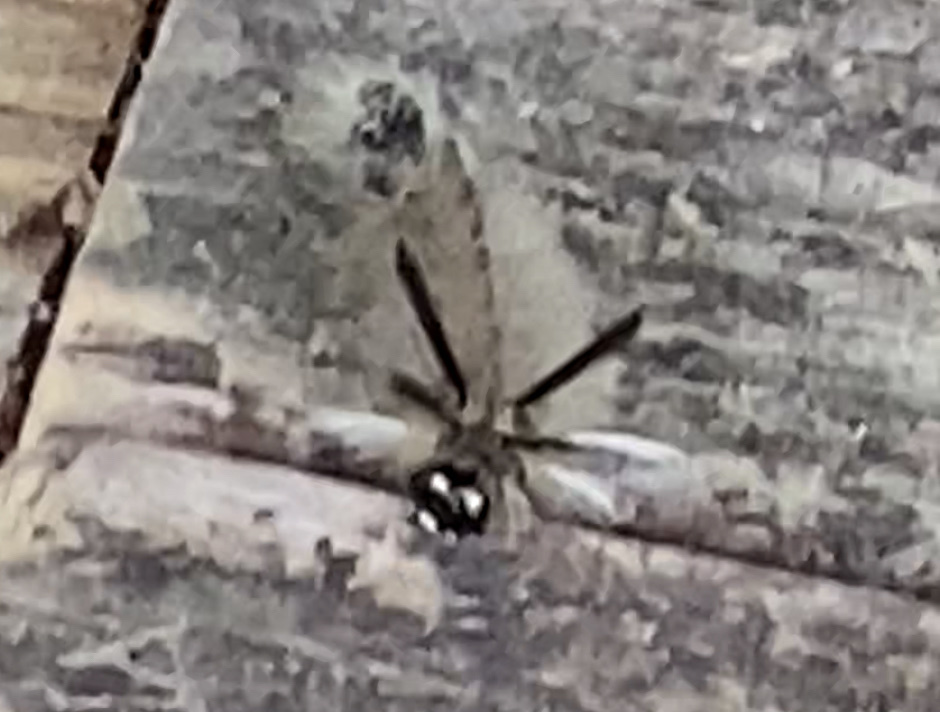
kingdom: Animalia
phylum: Arthropoda
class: Insecta
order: Lepidoptera
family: Erebidae
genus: Halysidota
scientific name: Halysidota tessellaris
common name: Banded tussock moth
